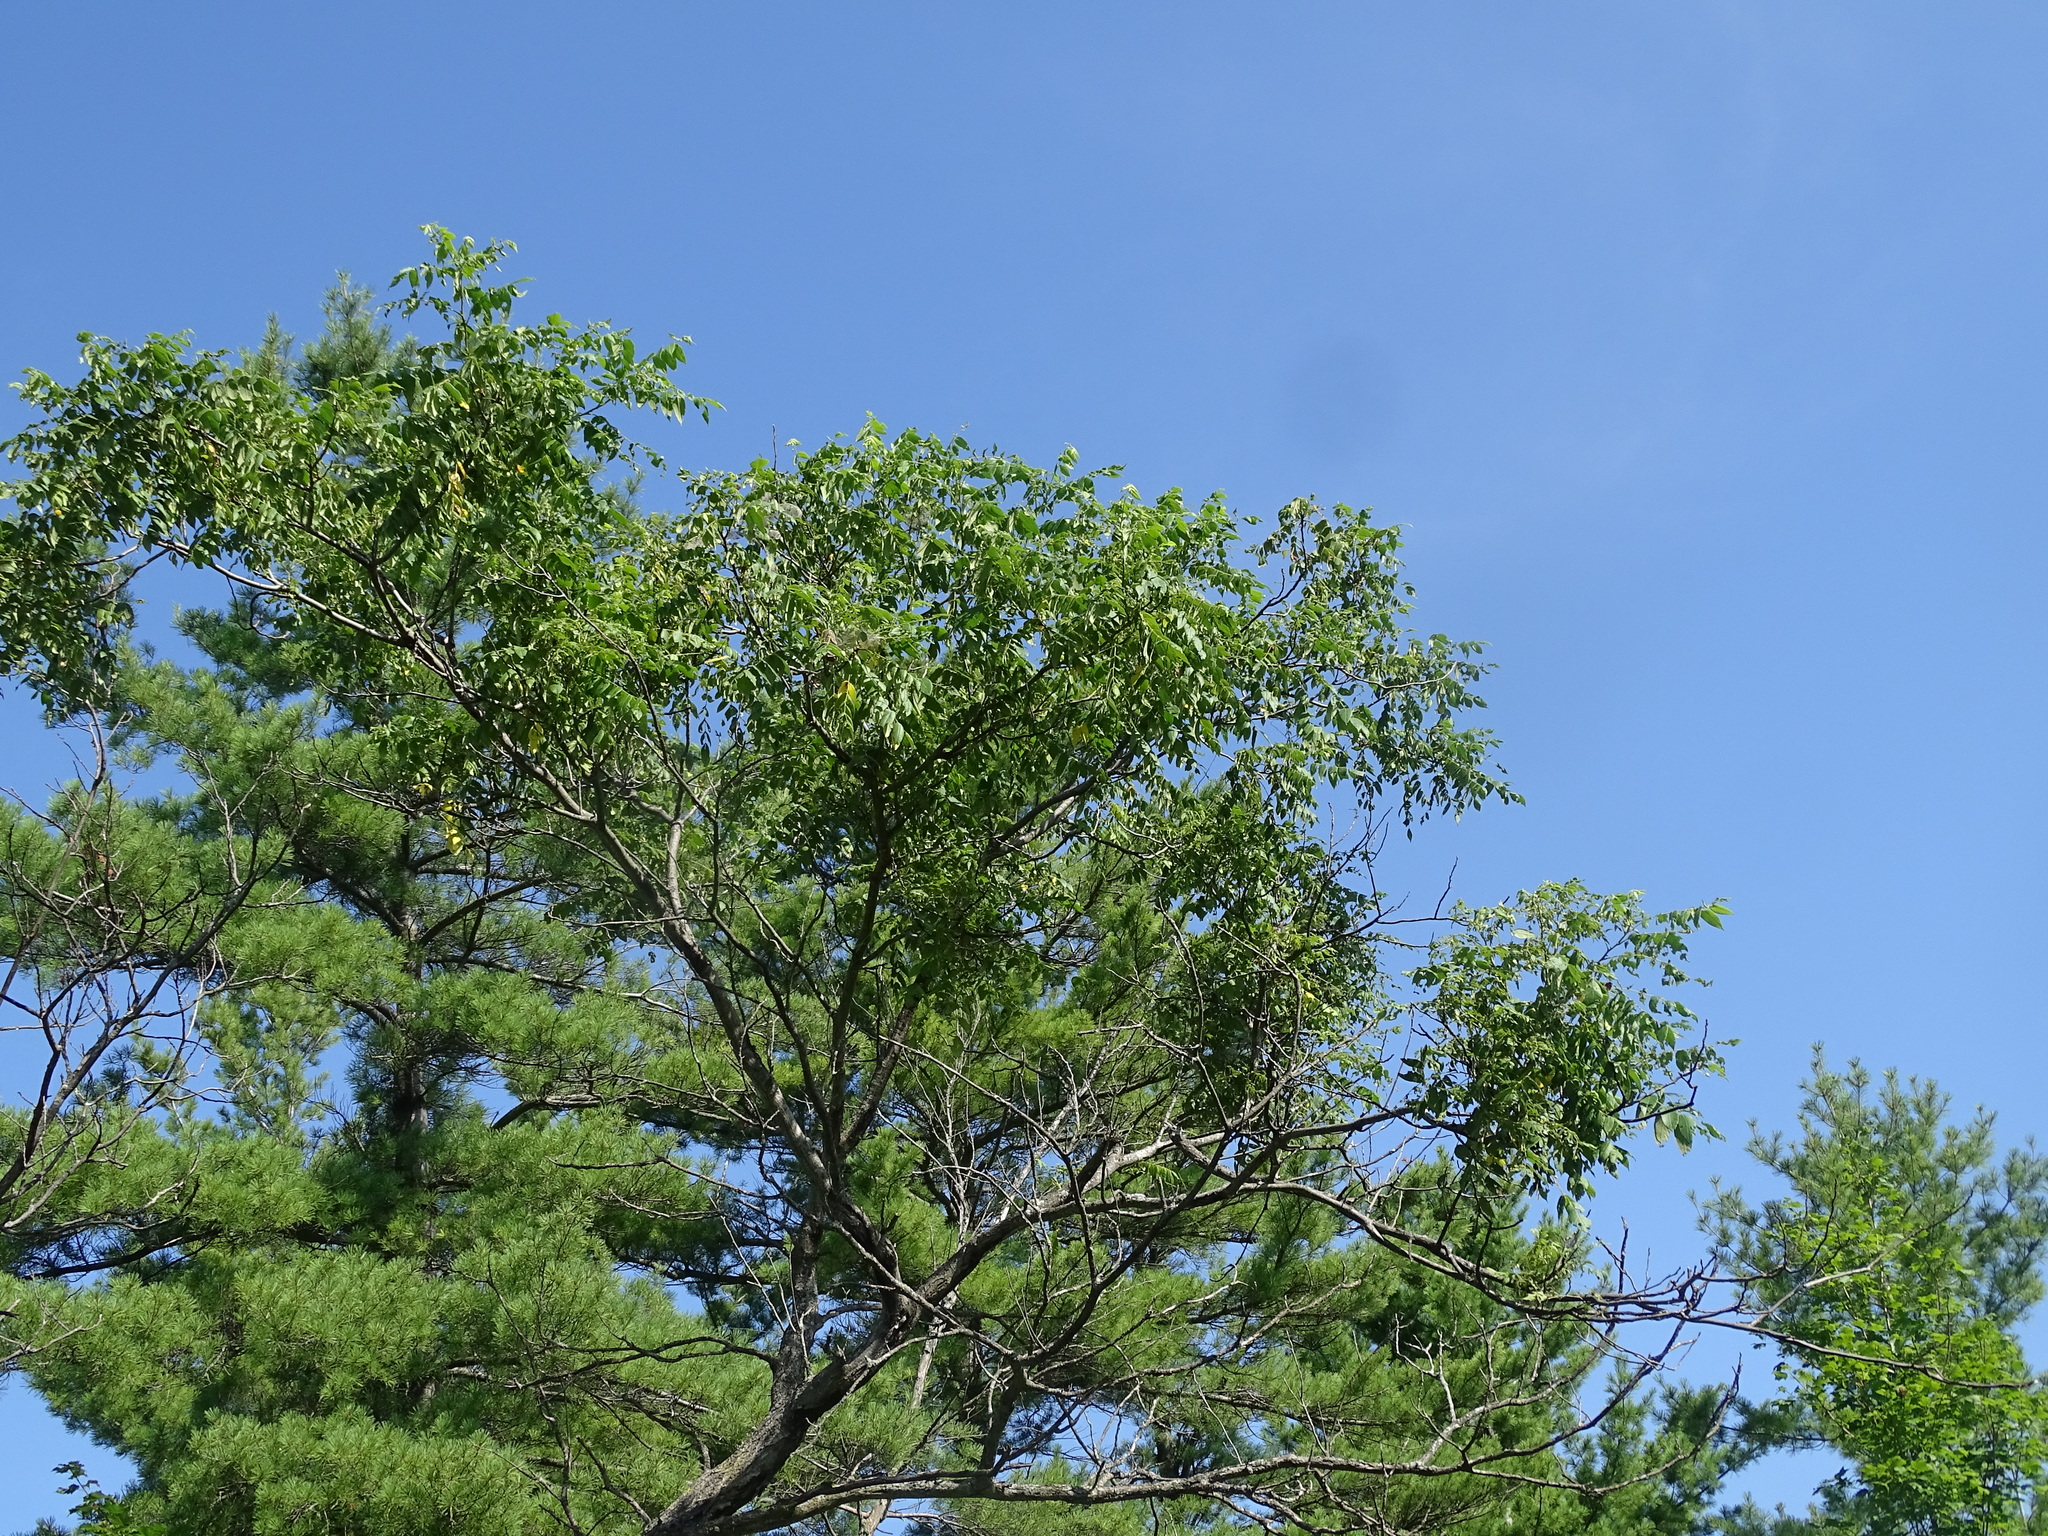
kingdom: Plantae
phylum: Tracheophyta
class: Magnoliopsida
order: Fagales
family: Juglandaceae
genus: Juglans
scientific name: Juglans cinerea
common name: Butternut
